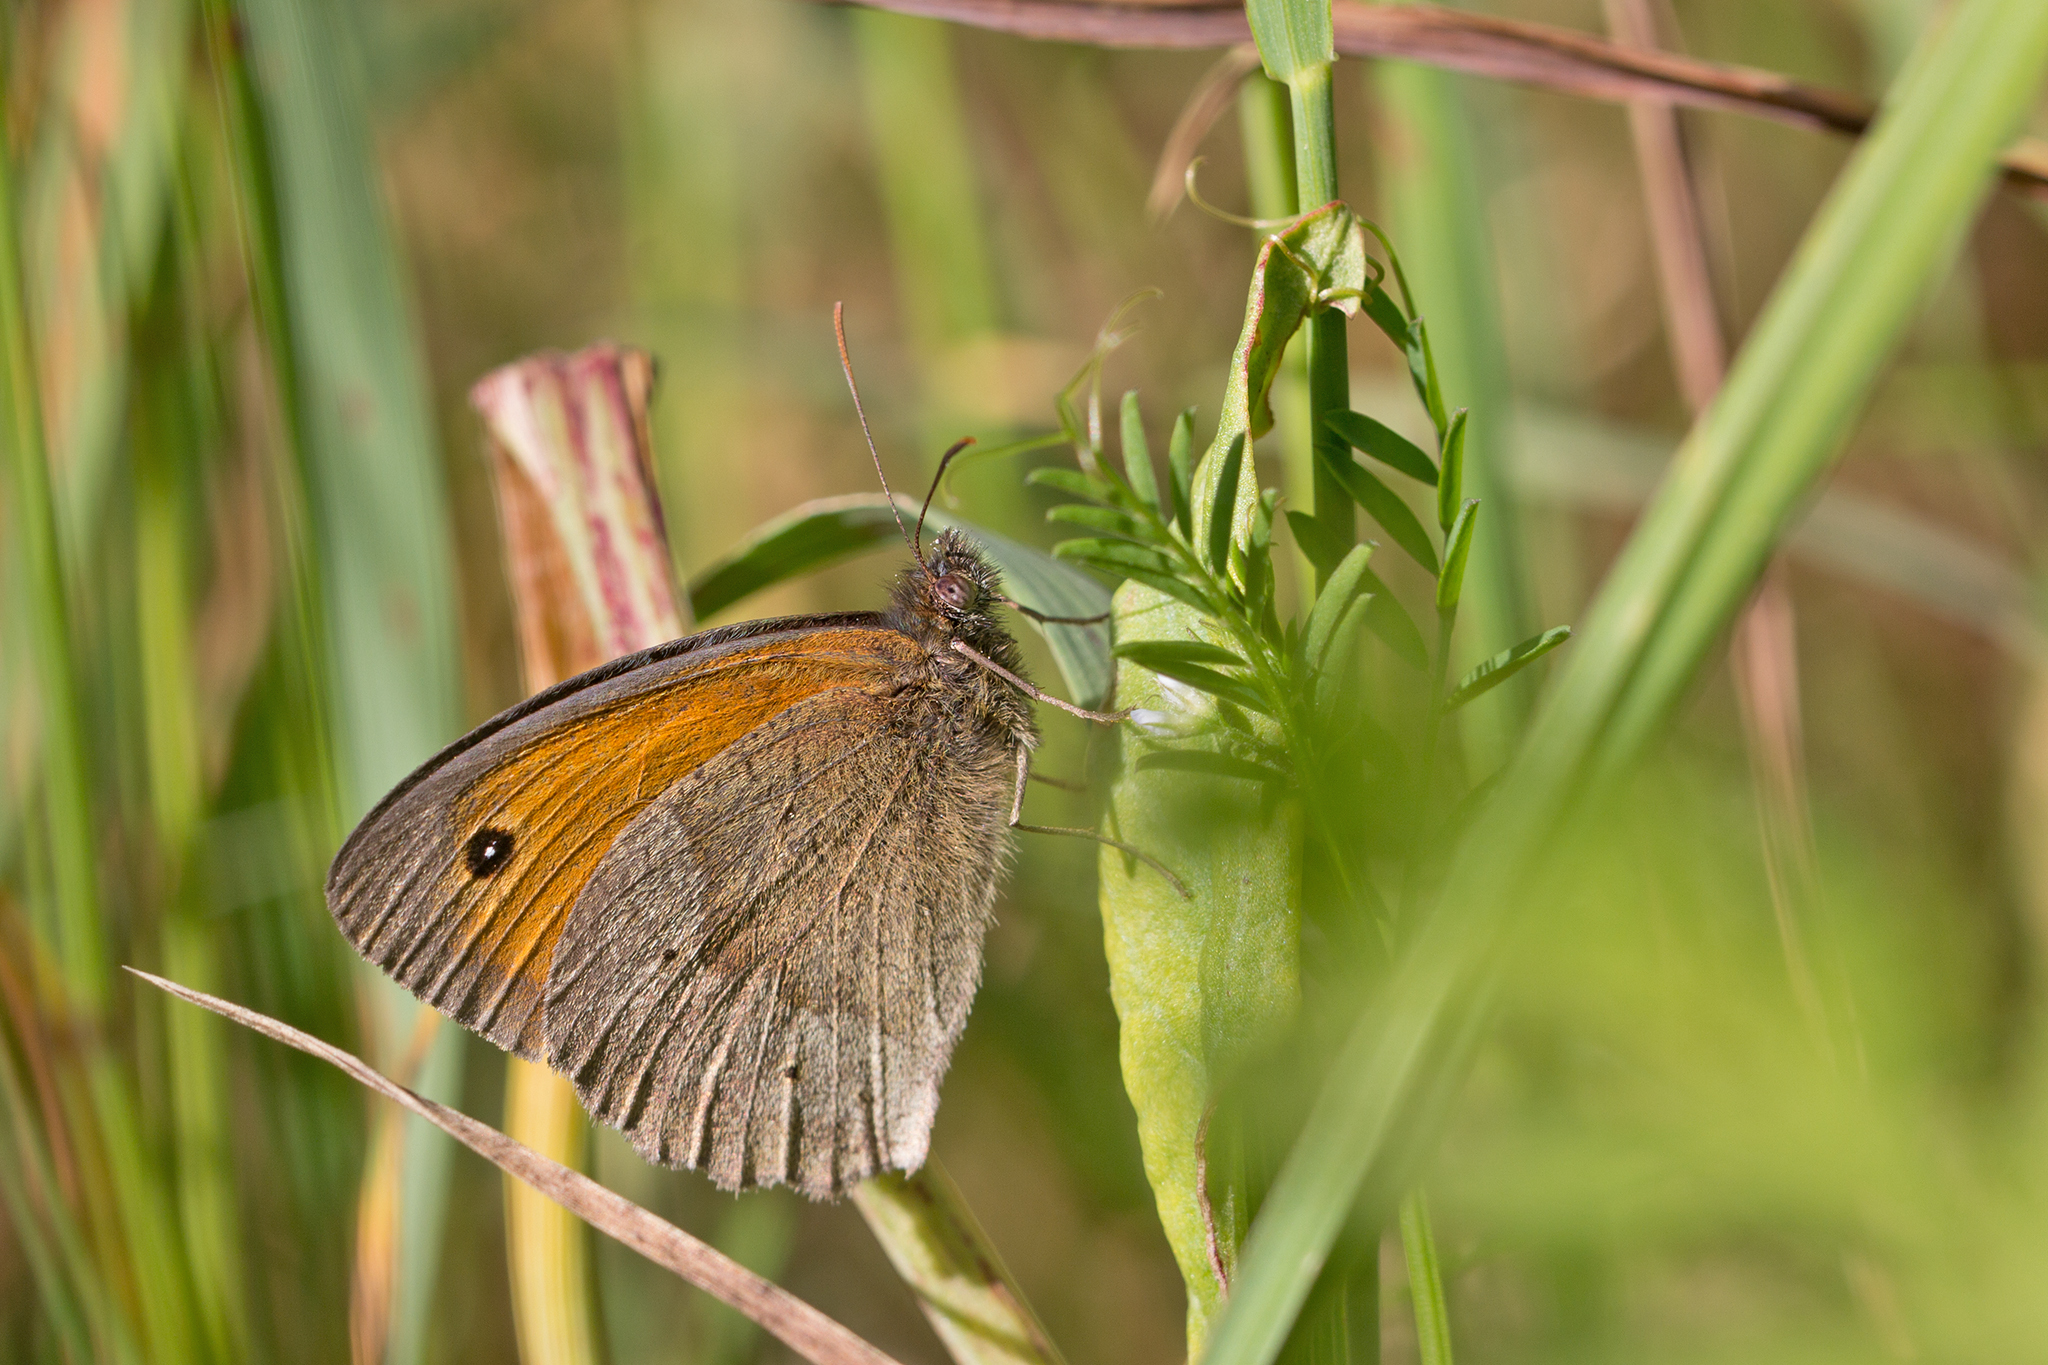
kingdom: Animalia
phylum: Arthropoda
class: Insecta
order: Lepidoptera
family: Nymphalidae
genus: Maniola
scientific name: Maniola jurtina
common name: Meadow brown
